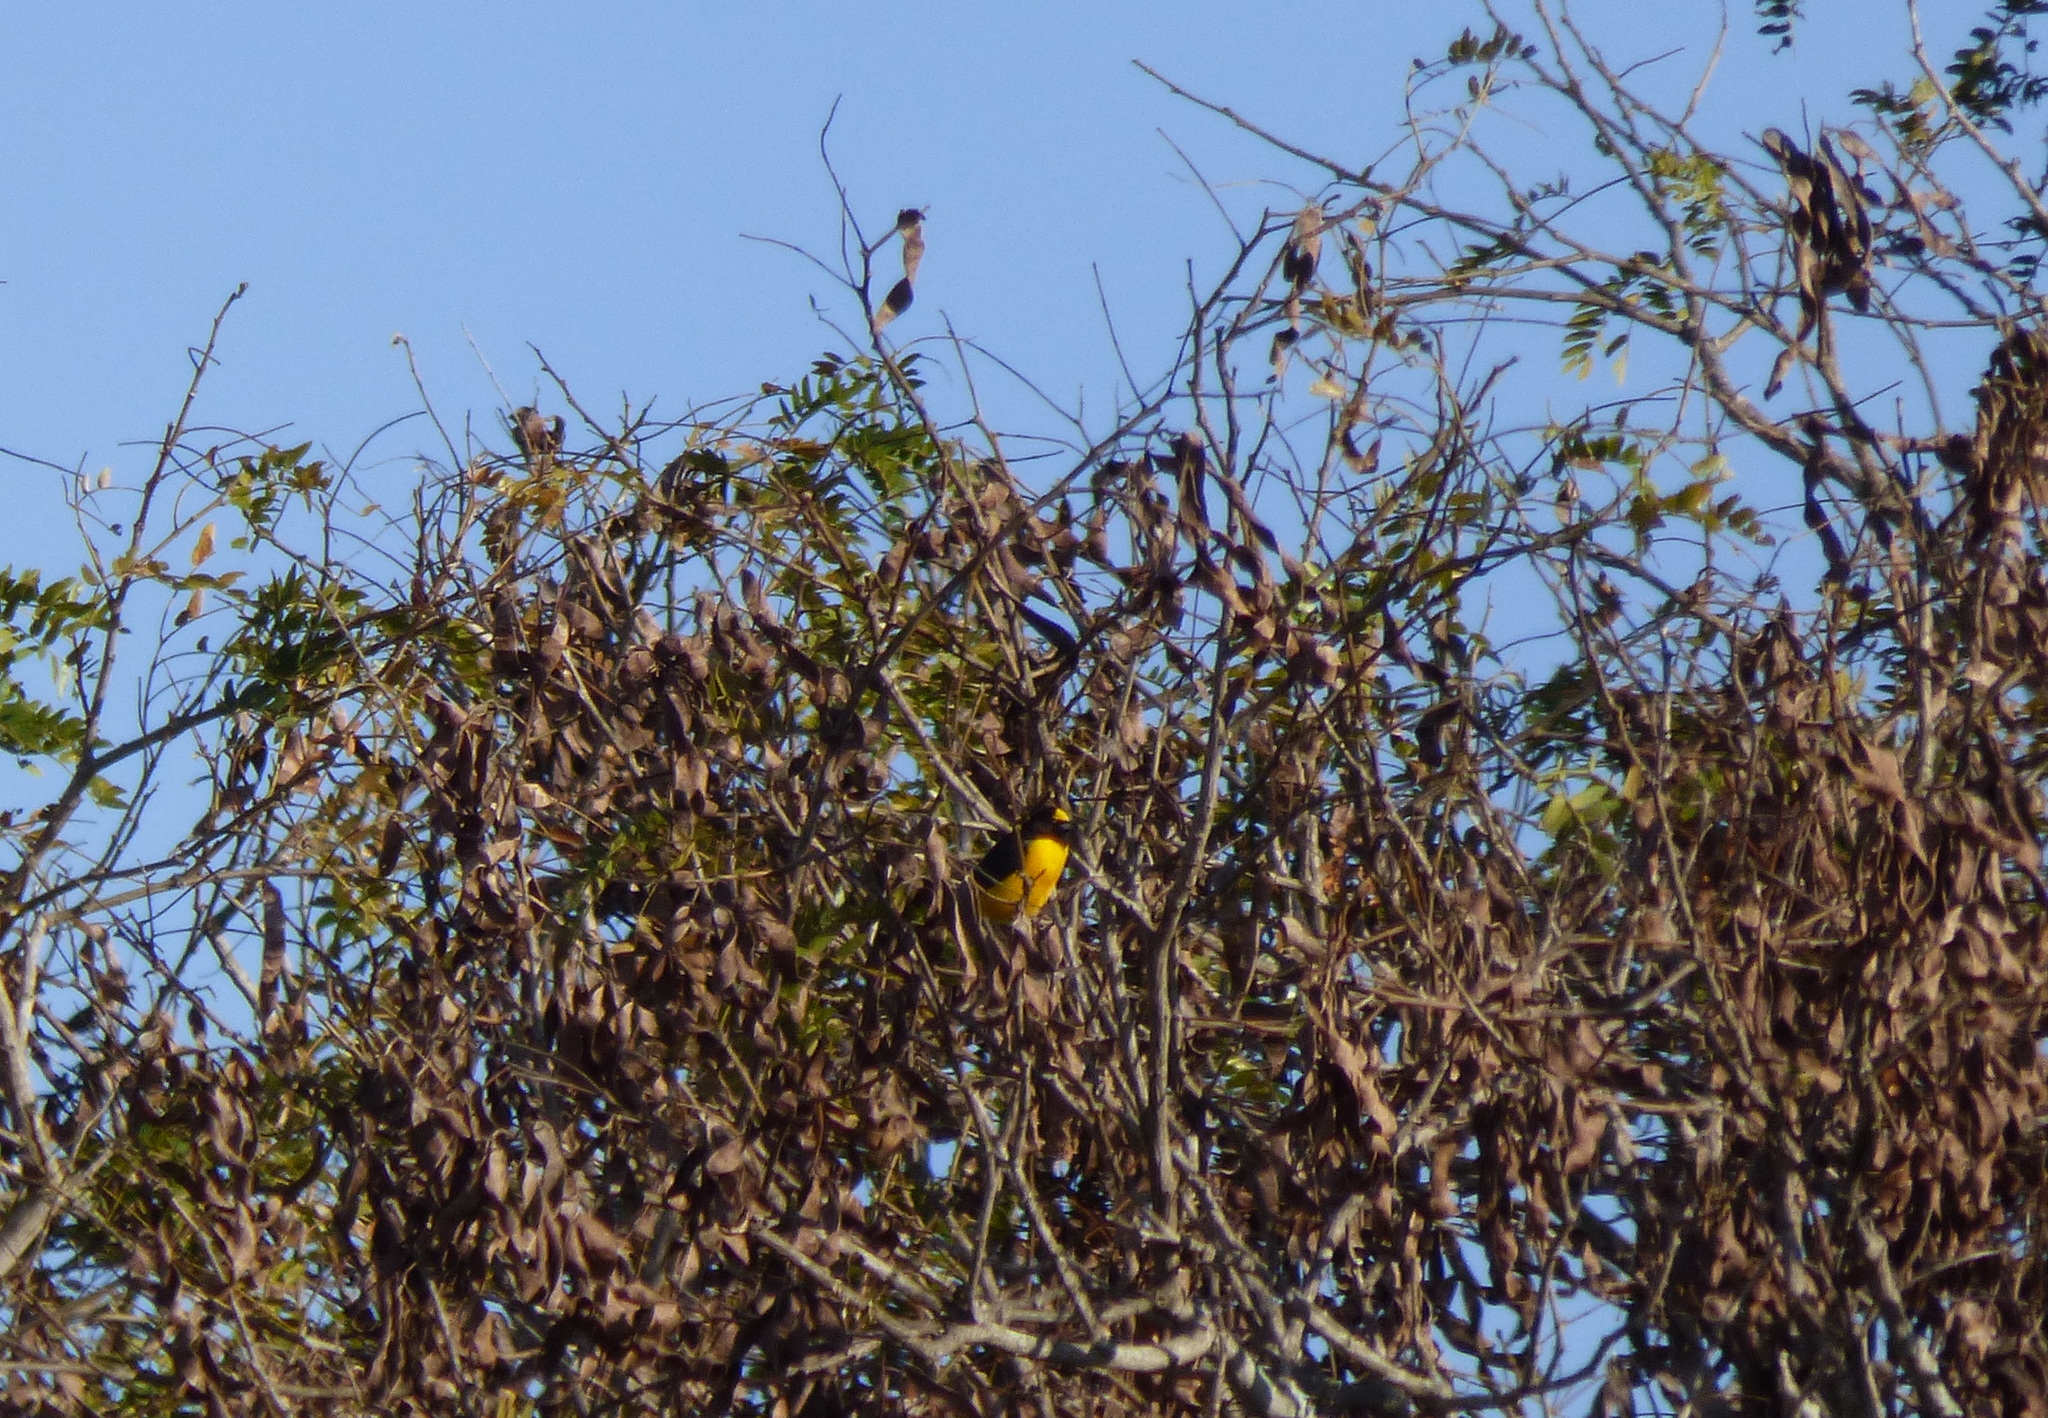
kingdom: Animalia
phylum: Chordata
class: Aves
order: Passeriformes
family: Fringillidae
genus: Euphonia
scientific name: Euphonia chlorotica
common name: Purple-throated euphonia
